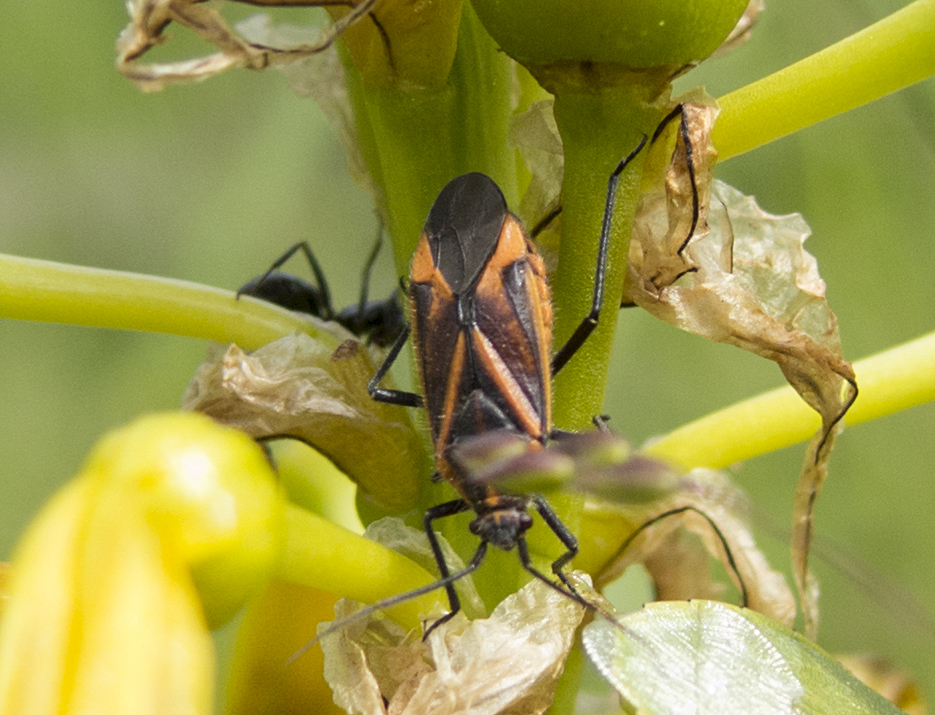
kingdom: Animalia
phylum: Arthropoda
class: Insecta
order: Hemiptera
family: Miridae
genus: Horistus
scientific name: Horistus infuscatus
